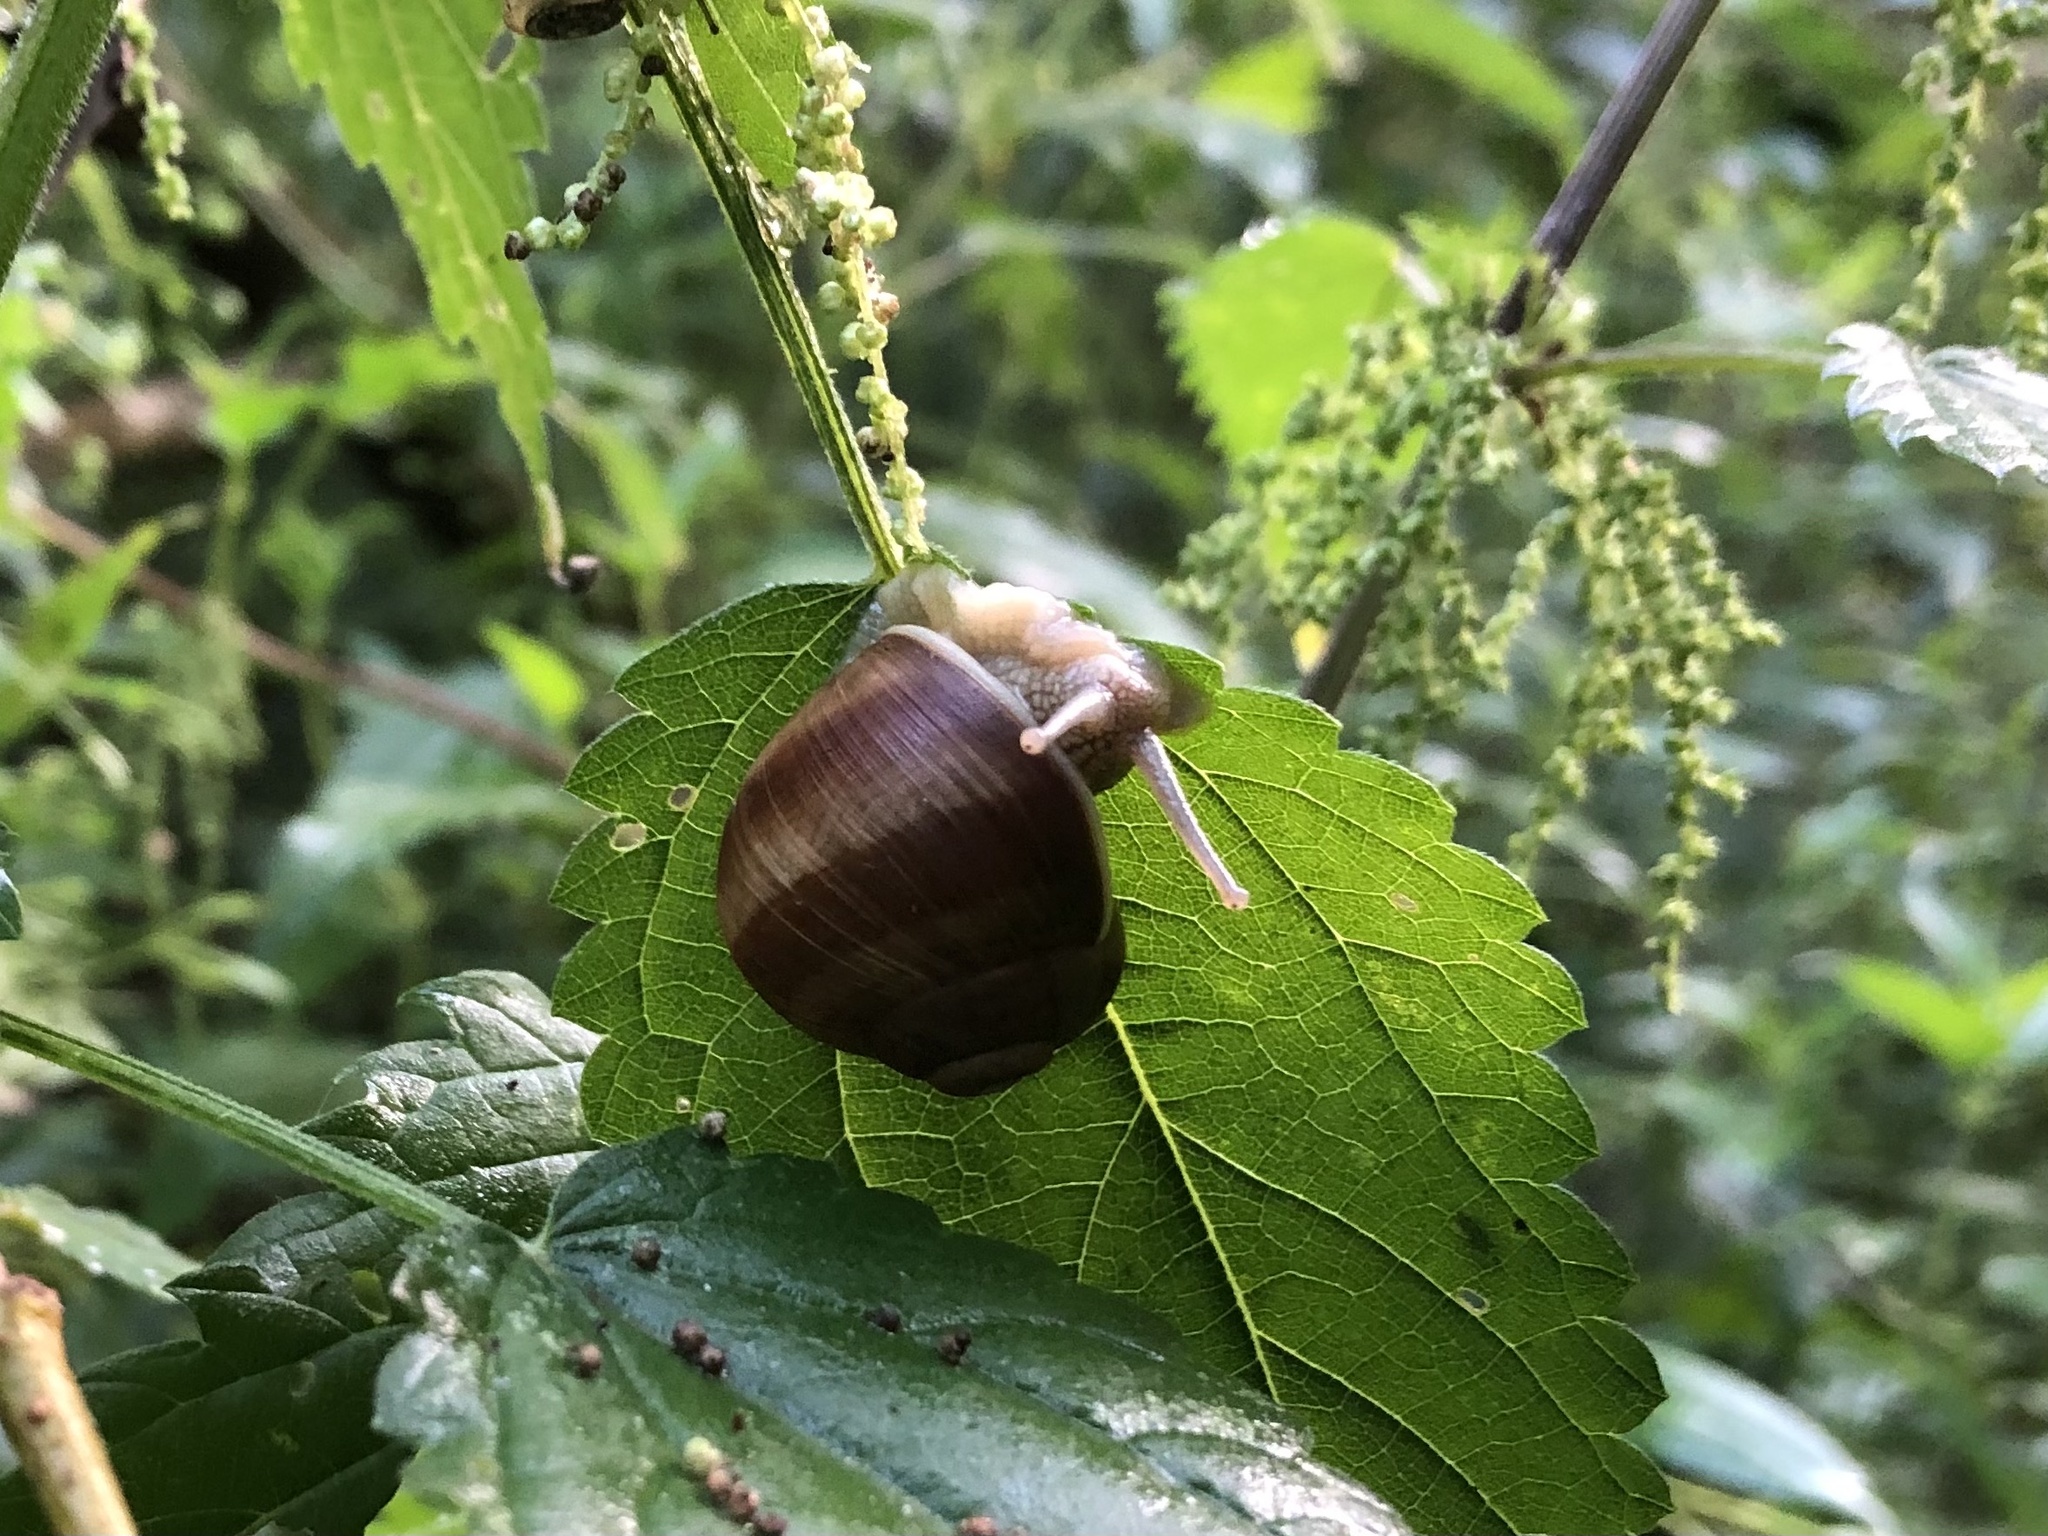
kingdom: Animalia
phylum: Mollusca
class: Gastropoda
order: Stylommatophora
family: Helicidae
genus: Helix
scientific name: Helix pomatia
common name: Roman snail
